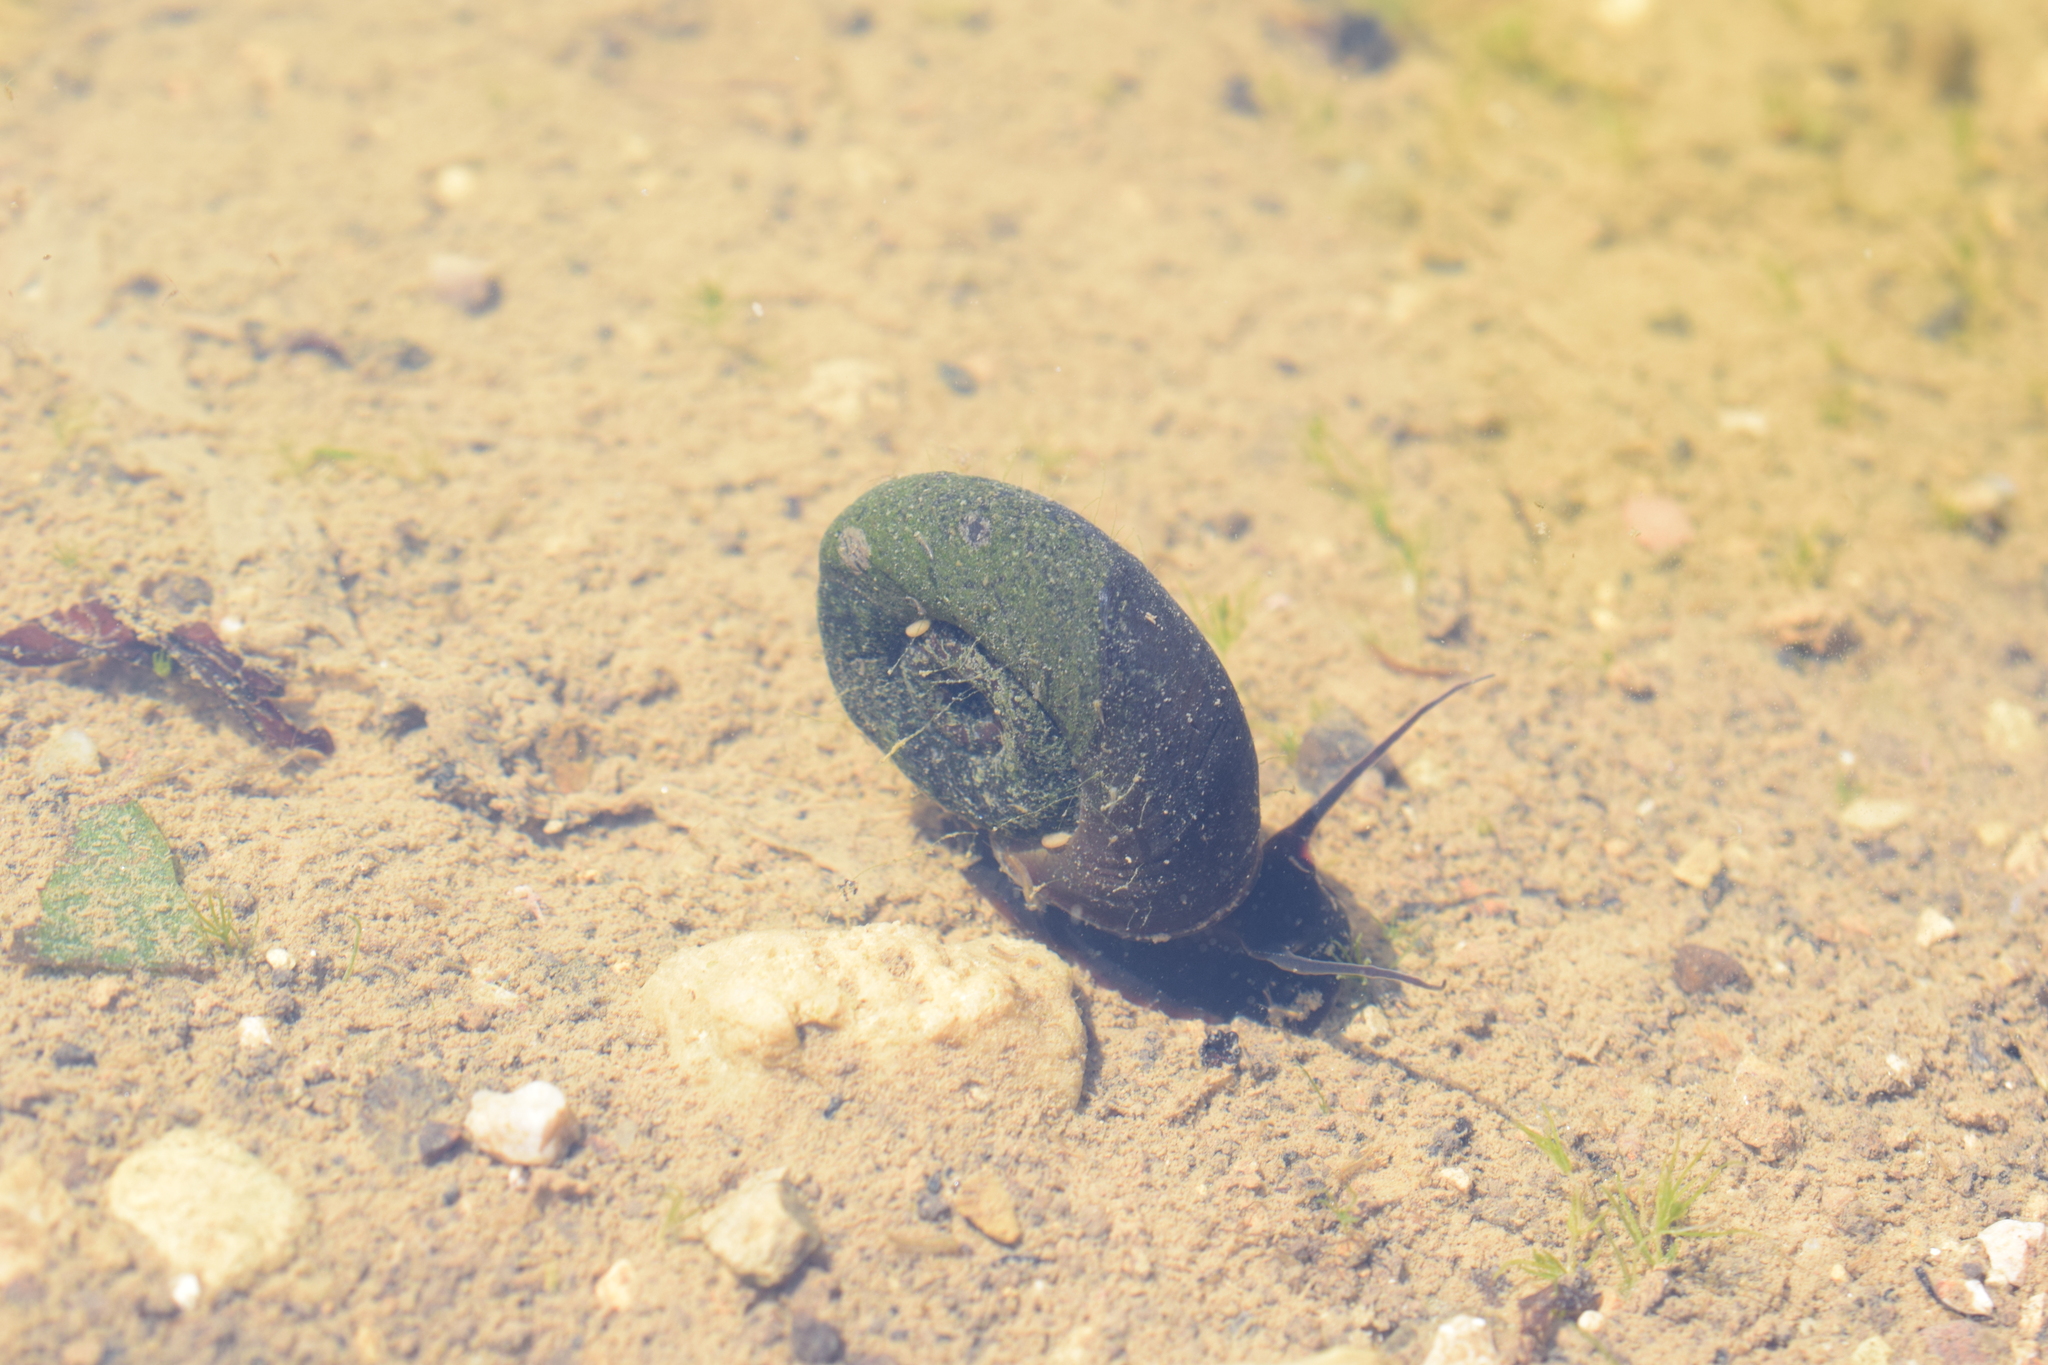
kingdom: Animalia
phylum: Mollusca
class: Gastropoda
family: Planorbidae
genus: Planorbarius
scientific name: Planorbarius corneus
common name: Great ramshorn
